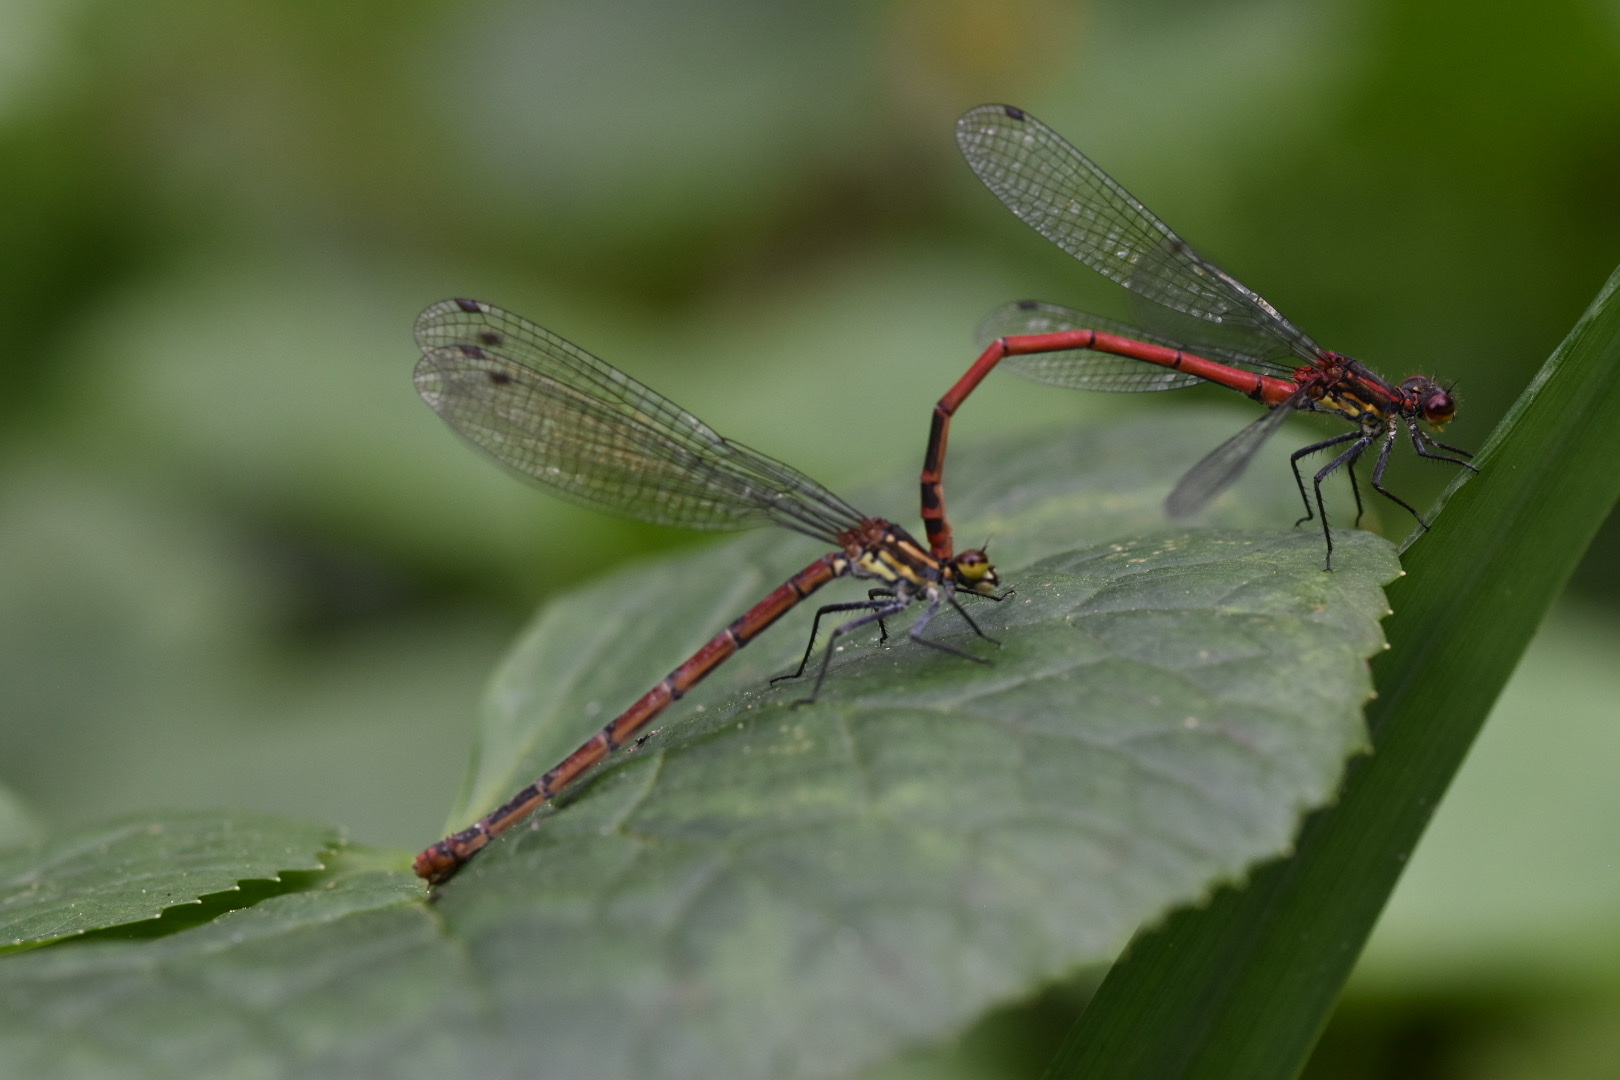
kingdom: Animalia
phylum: Arthropoda
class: Insecta
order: Odonata
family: Coenagrionidae
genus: Pyrrhosoma
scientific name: Pyrrhosoma nymphula
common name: Large red damsel
